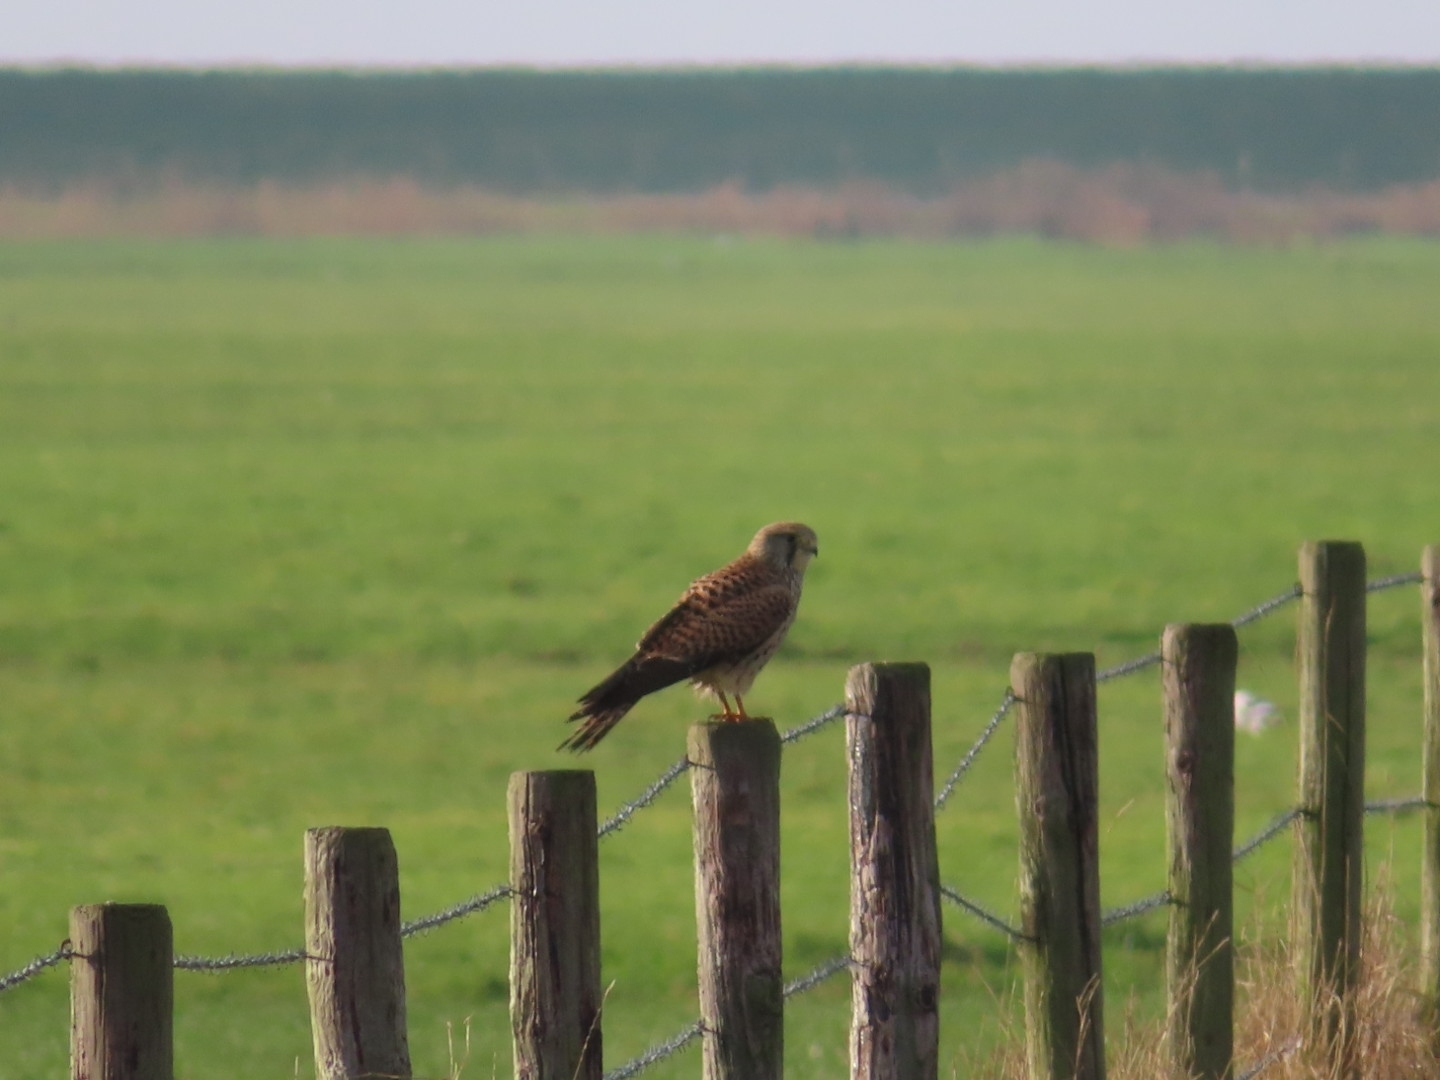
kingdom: Animalia
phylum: Chordata
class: Aves
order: Falconiformes
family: Falconidae
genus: Falco
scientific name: Falco tinnunculus
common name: Common kestrel
